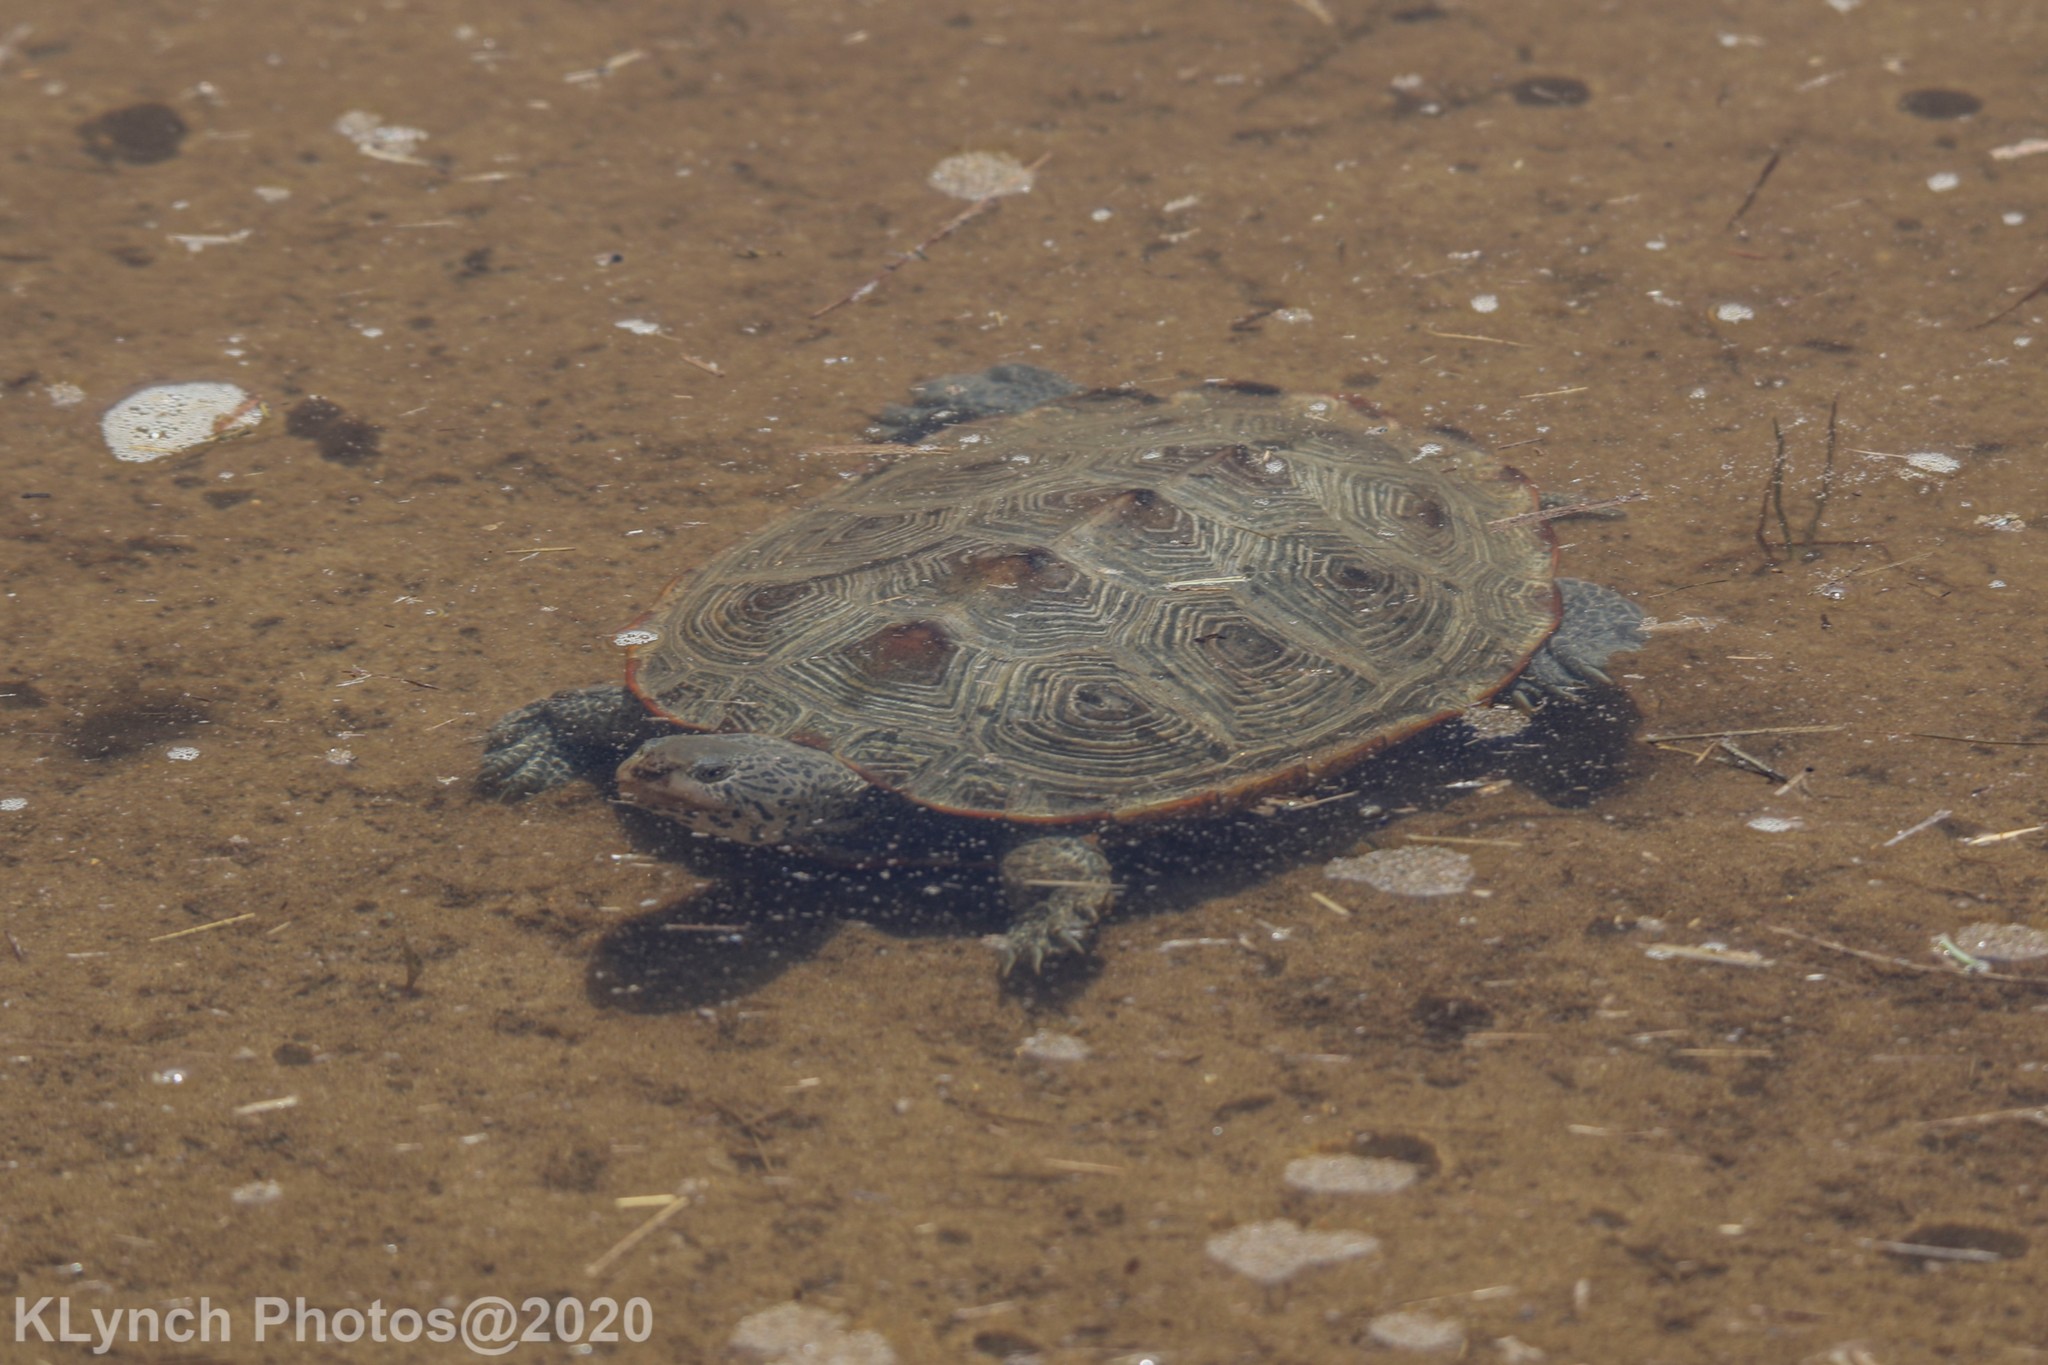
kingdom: Animalia
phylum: Chordata
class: Testudines
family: Emydidae
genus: Malaclemys
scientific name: Malaclemys terrapin
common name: Diamondback terrapin
